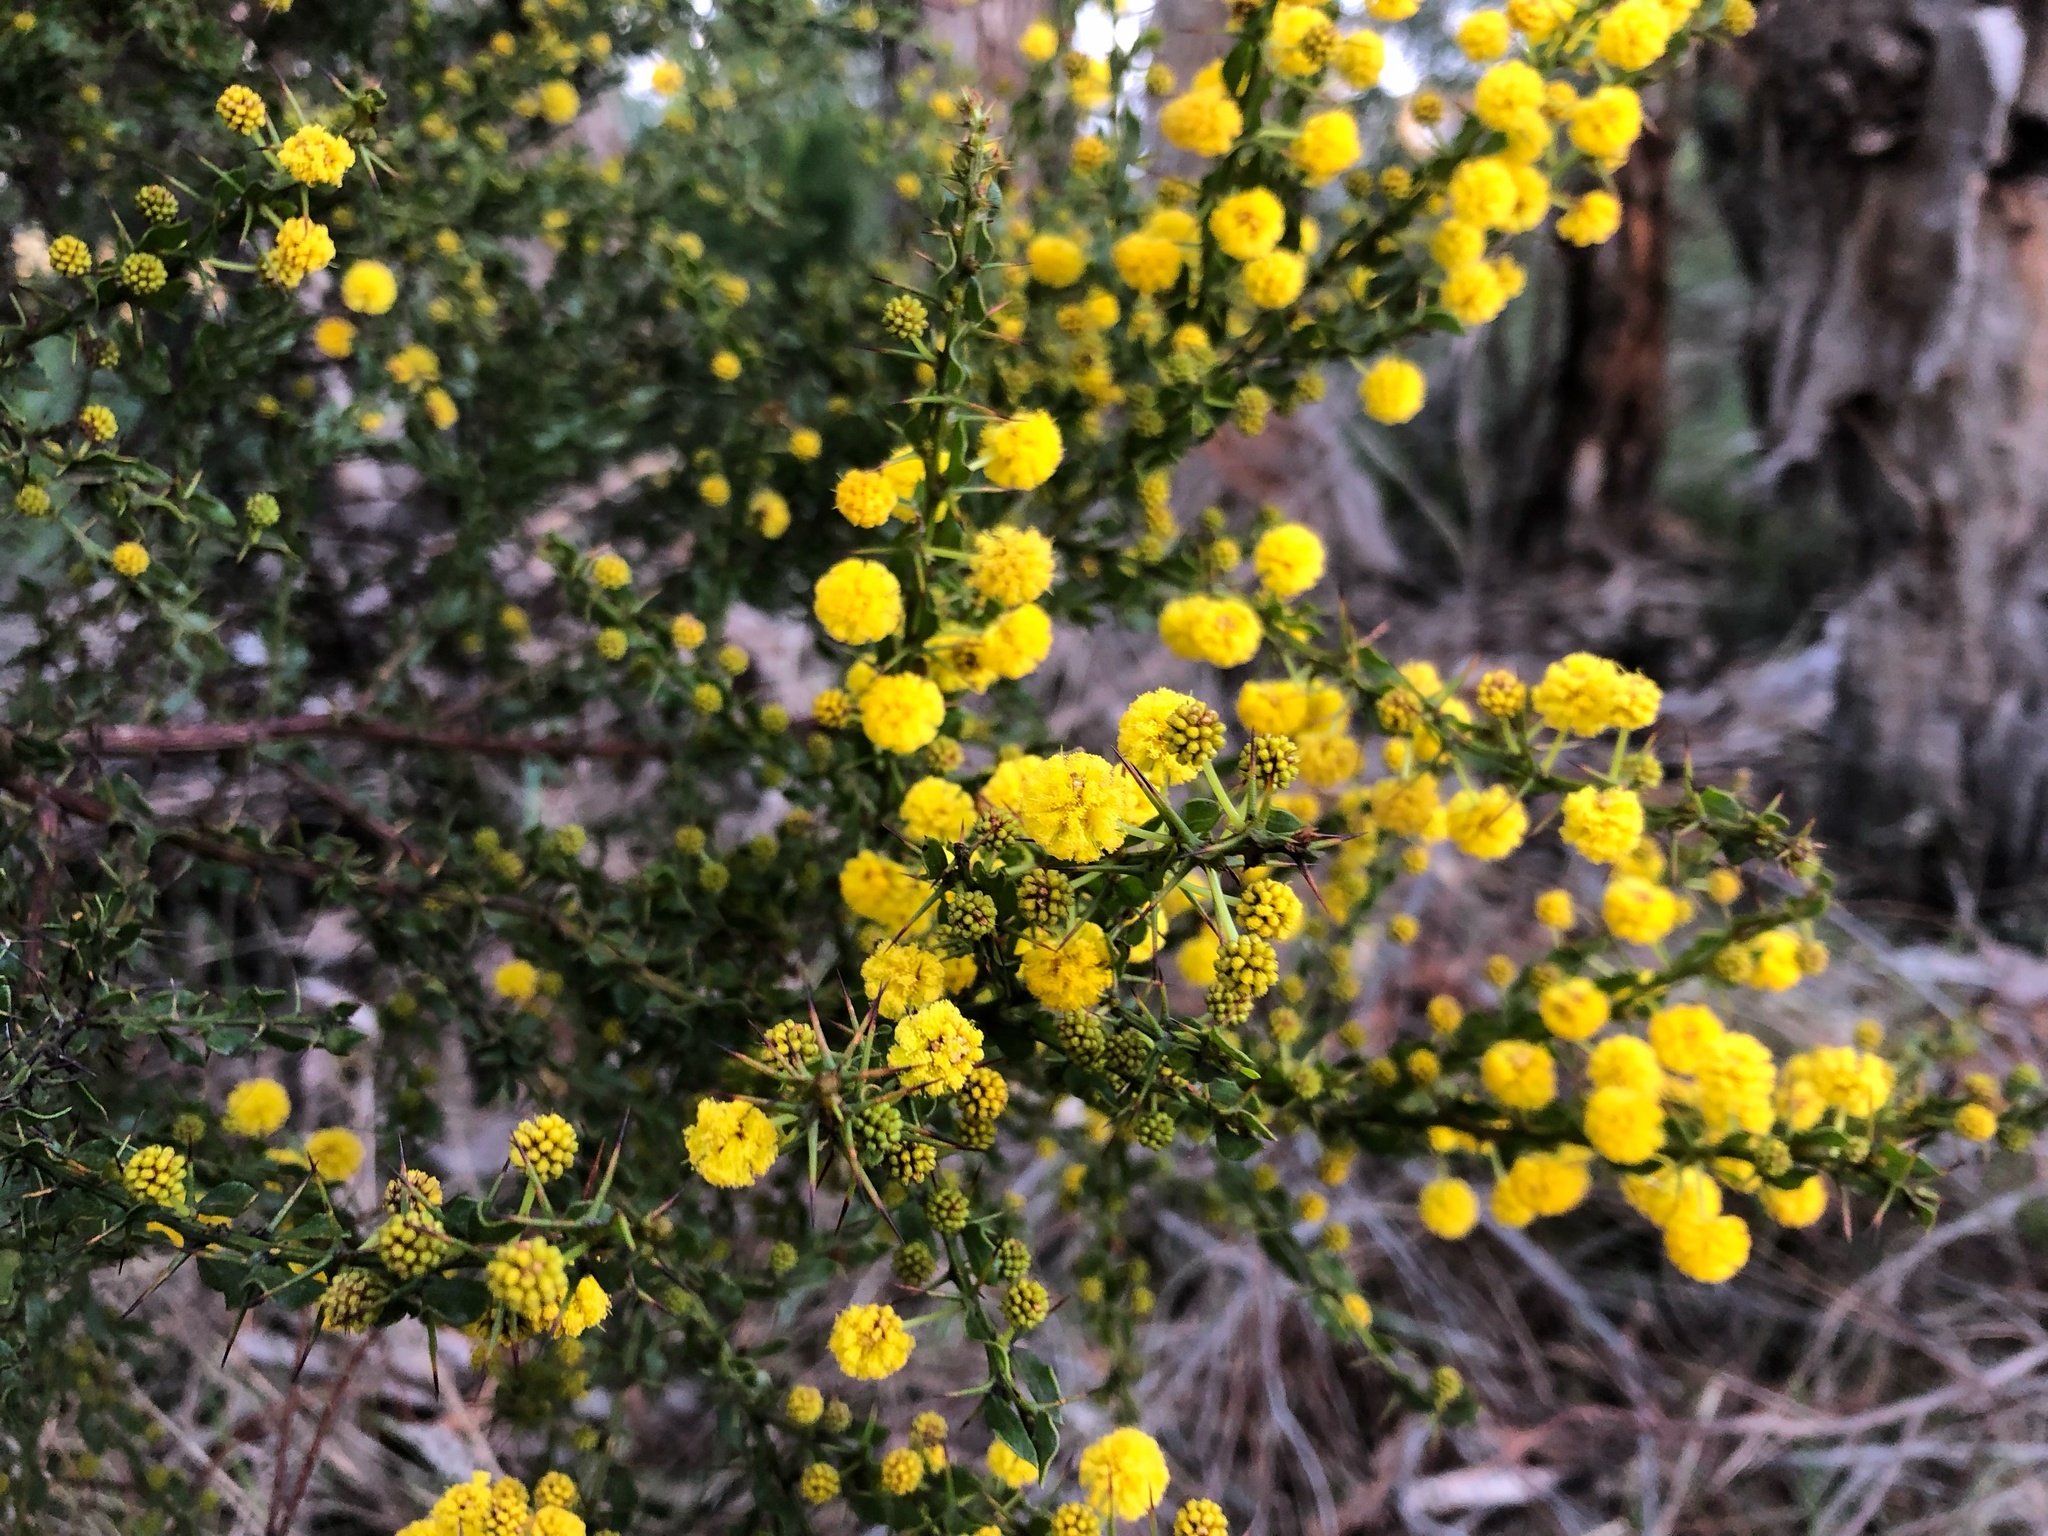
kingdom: Plantae
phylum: Tracheophyta
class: Magnoliopsida
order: Fabales
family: Fabaceae
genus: Acacia
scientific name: Acacia paradoxa
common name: Paradox acacia
